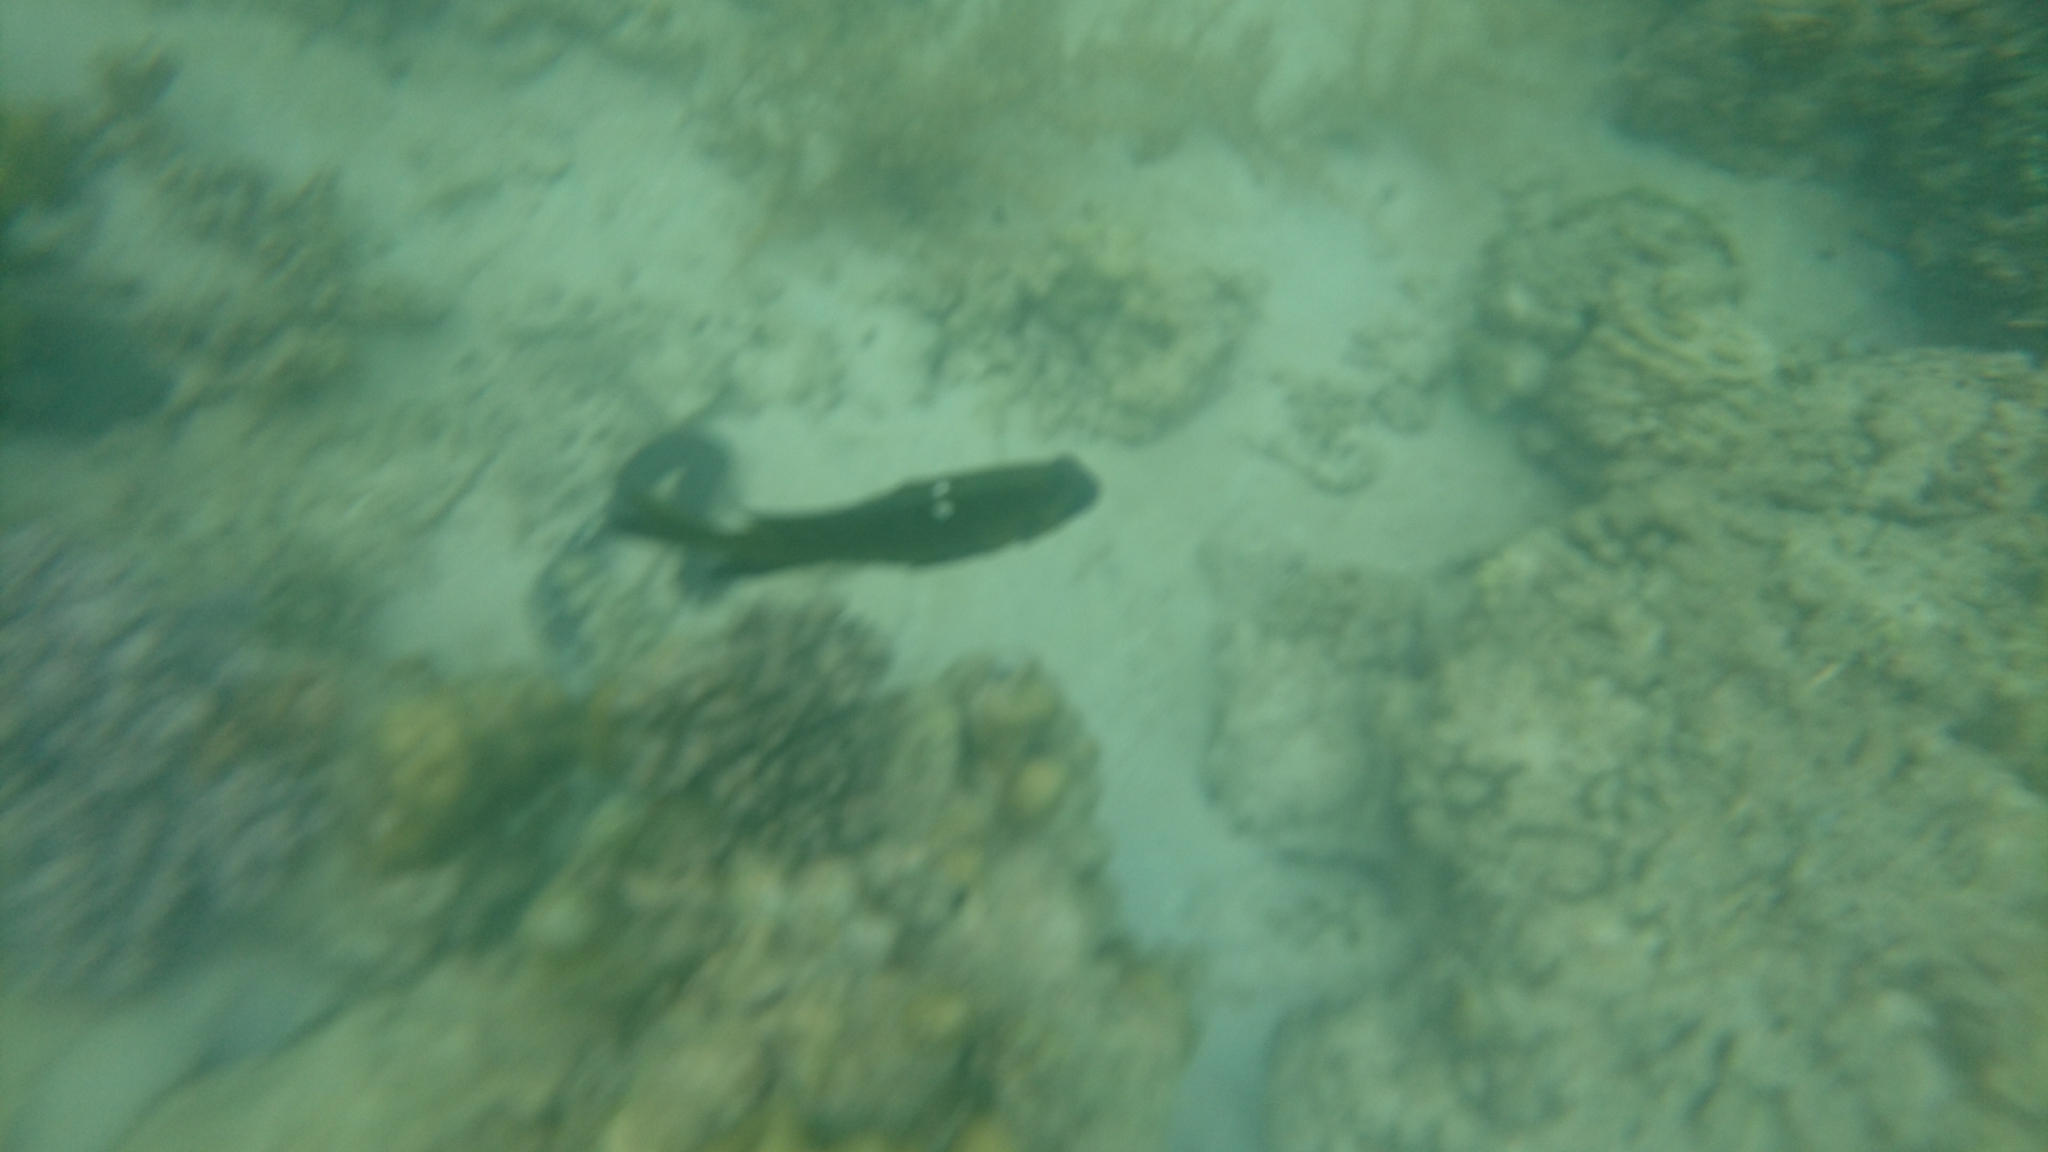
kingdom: Animalia
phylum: Chordata
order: Perciformes
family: Pomacentridae
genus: Dischistodus
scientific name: Dischistodus chrysopoecilus
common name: White-spot damsel
